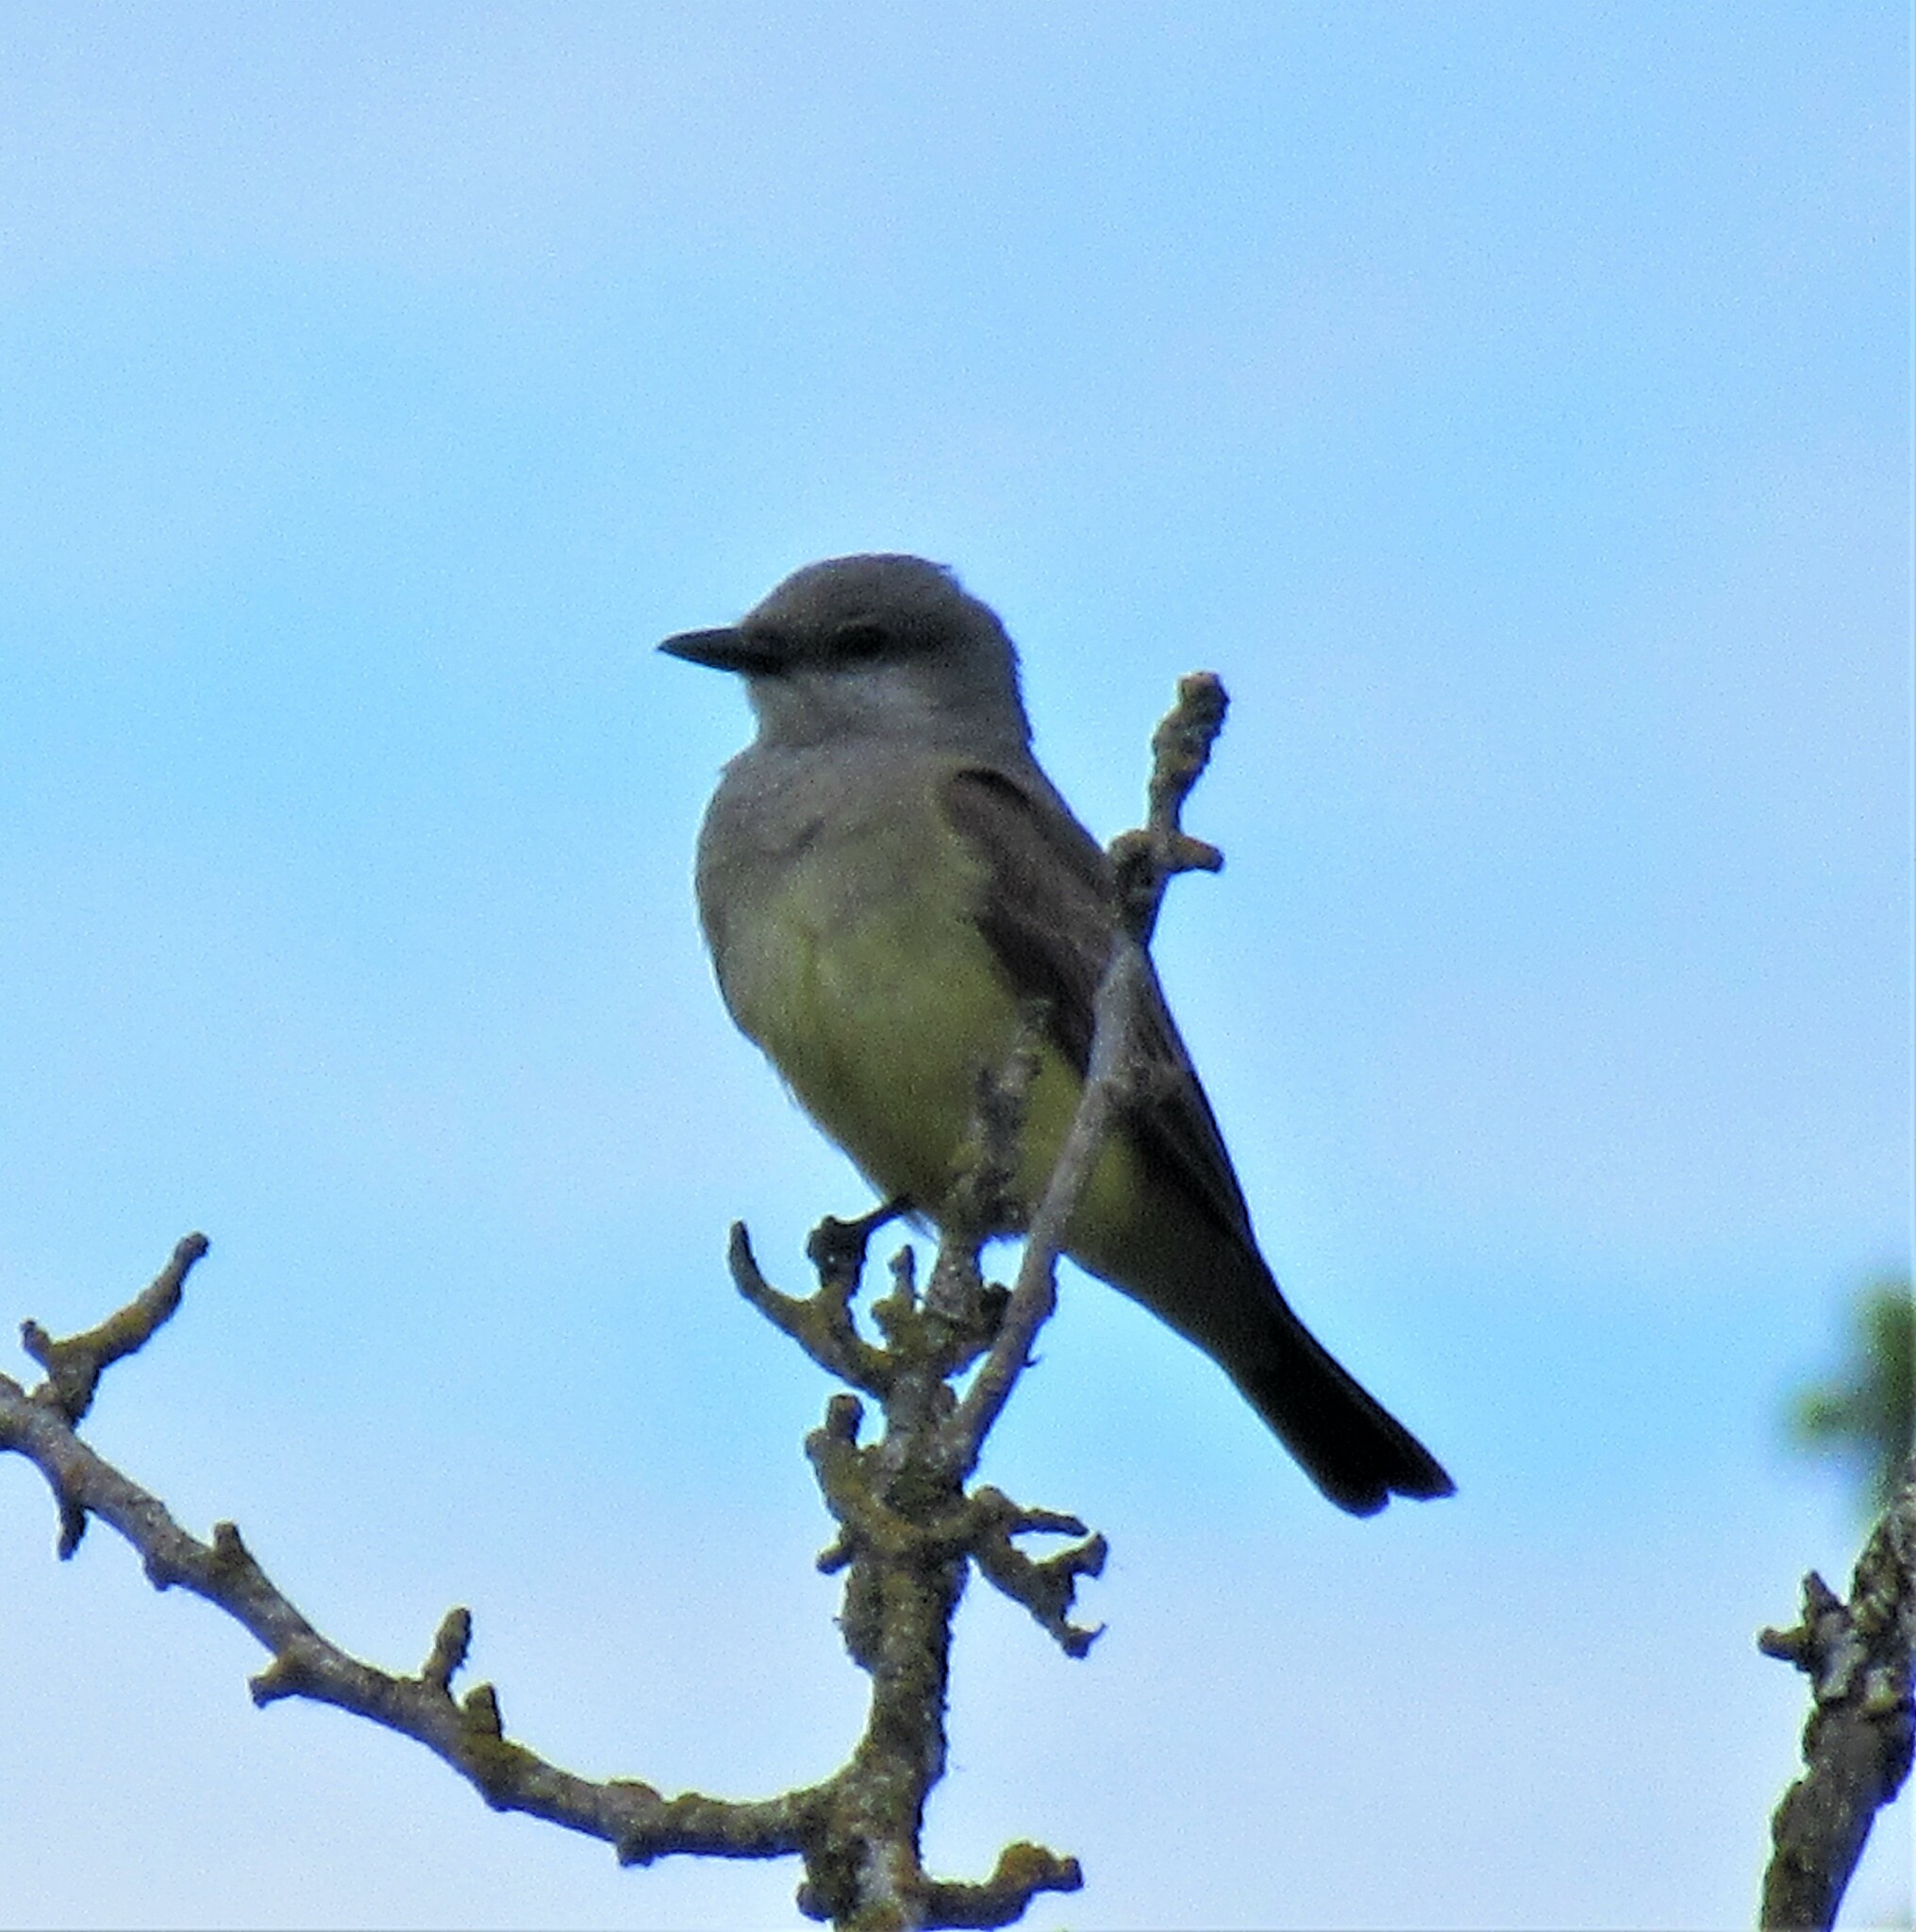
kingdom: Animalia
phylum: Chordata
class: Aves
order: Passeriformes
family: Tyrannidae
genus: Tyrannus
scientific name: Tyrannus verticalis
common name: Western kingbird
